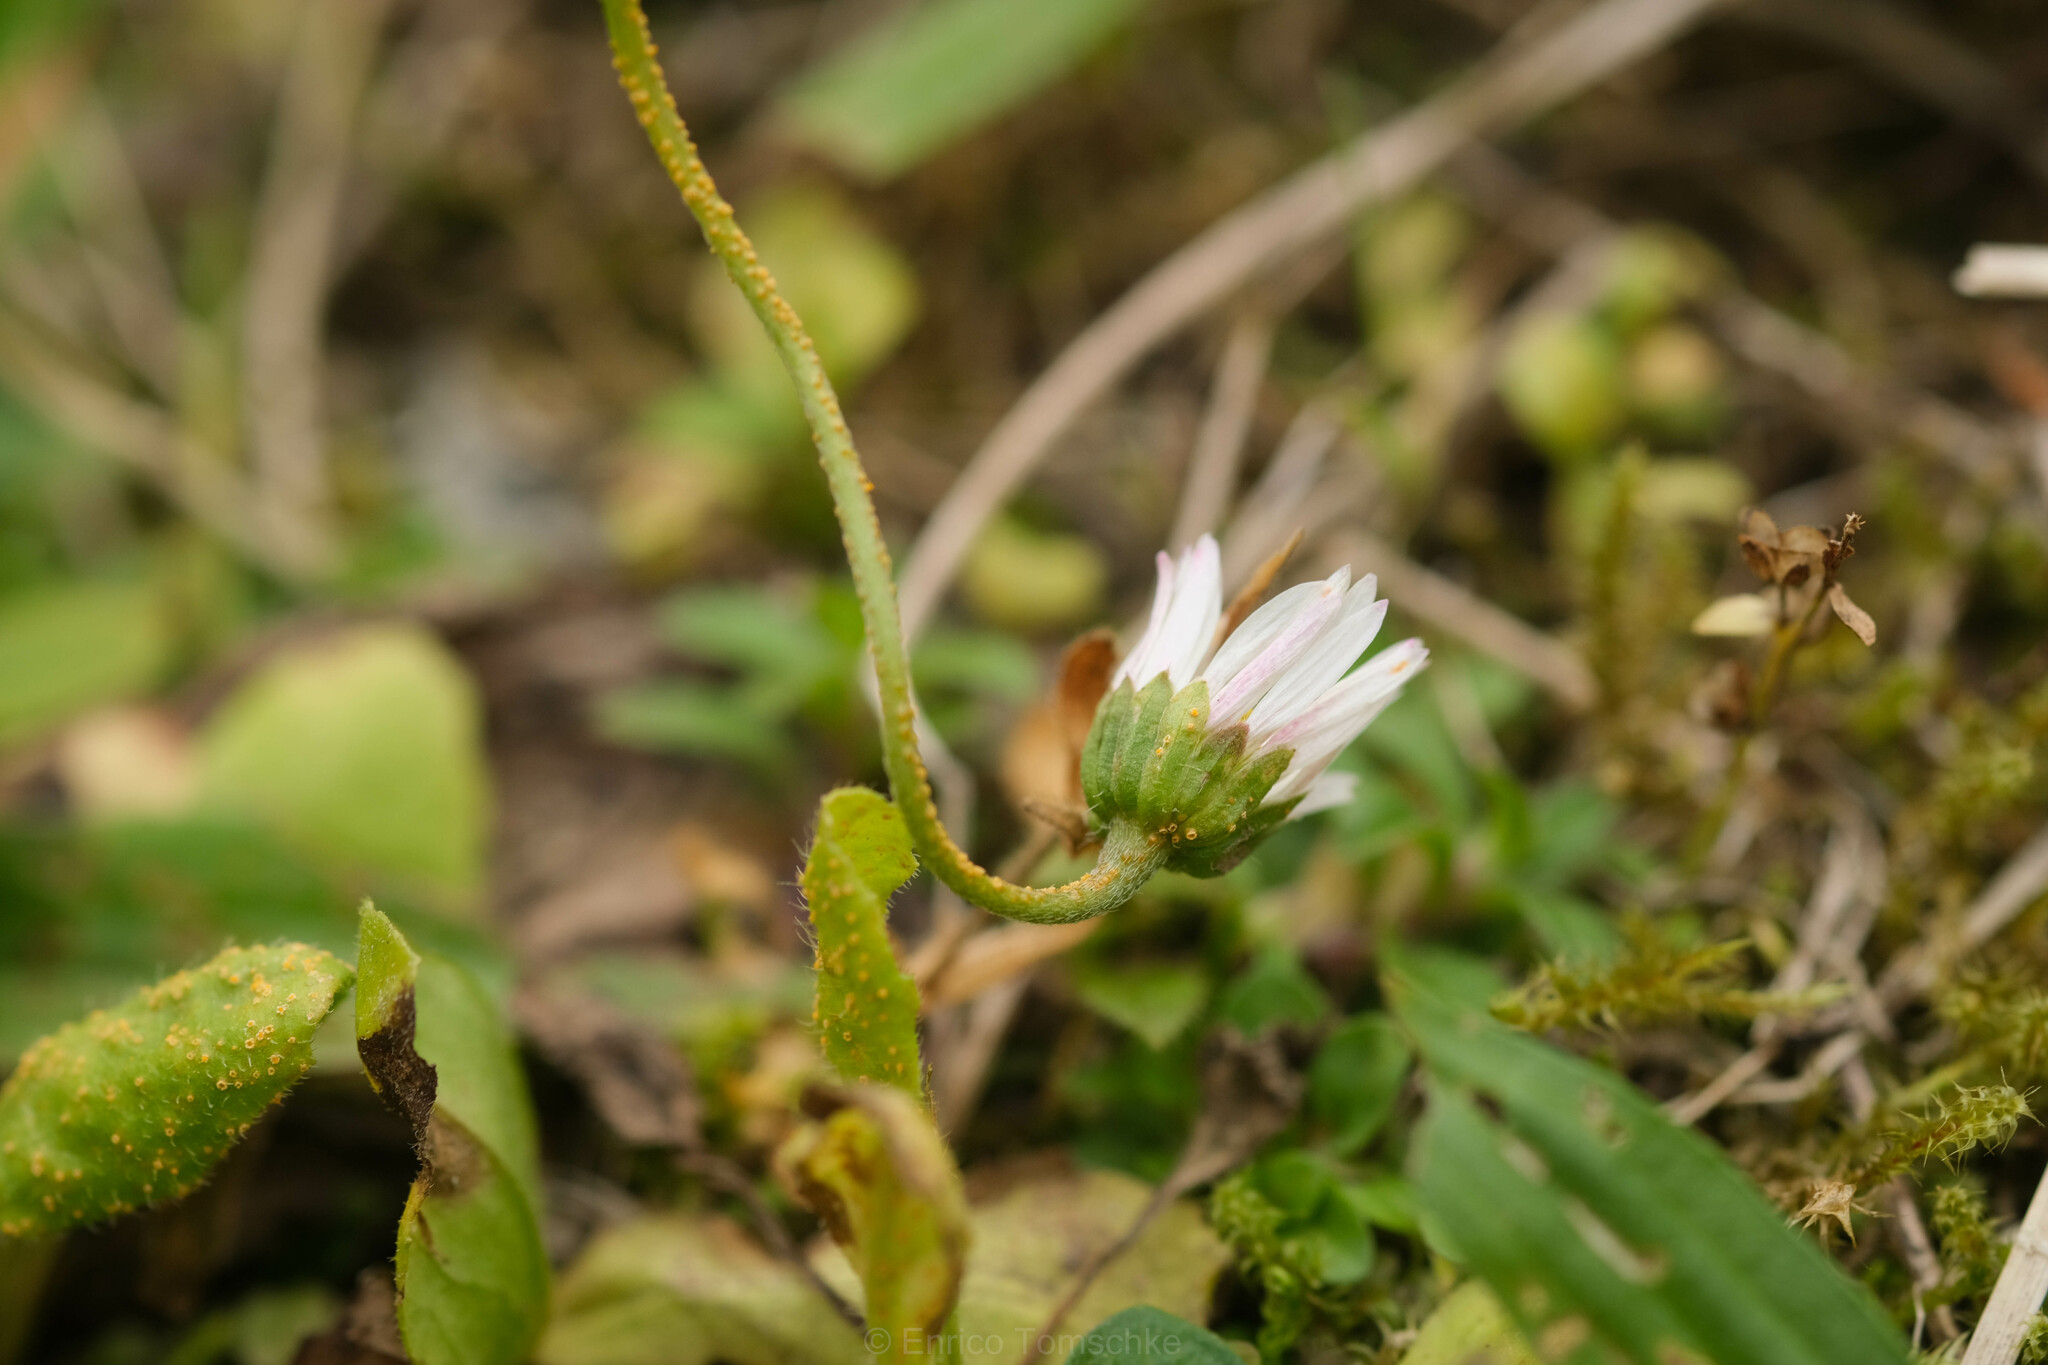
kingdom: Fungi
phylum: Basidiomycota
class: Pucciniomycetes
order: Pucciniales
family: Pucciniaceae
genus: Puccinia
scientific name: Puccinia lagenophorae
